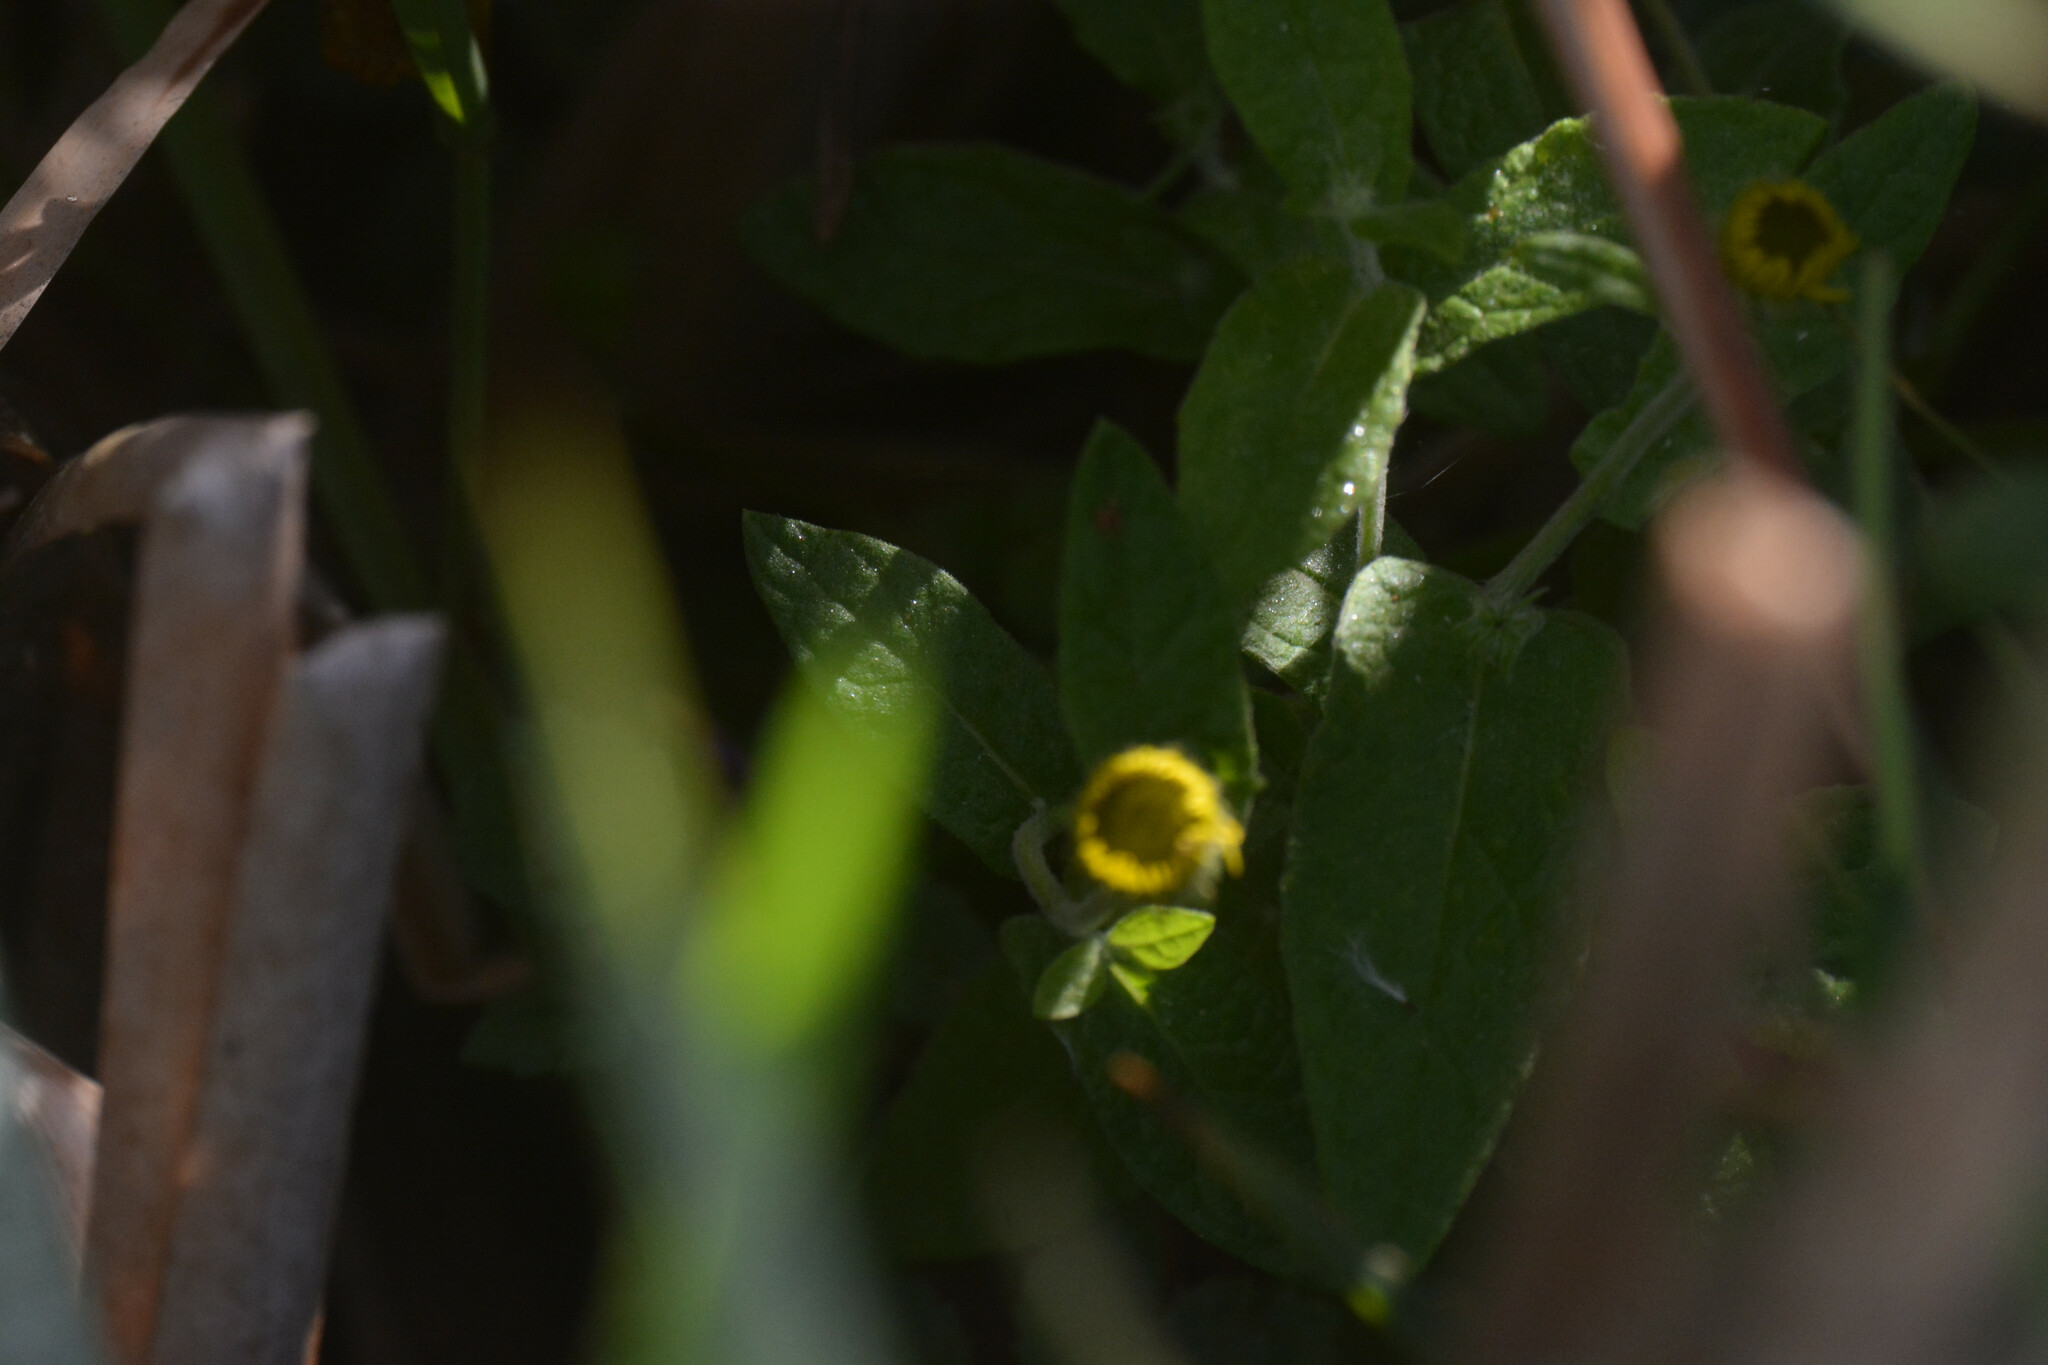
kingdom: Plantae
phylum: Tracheophyta
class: Magnoliopsida
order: Asterales
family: Asteraceae
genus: Pulicaria
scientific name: Pulicaria dysenterica
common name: Common fleabane
